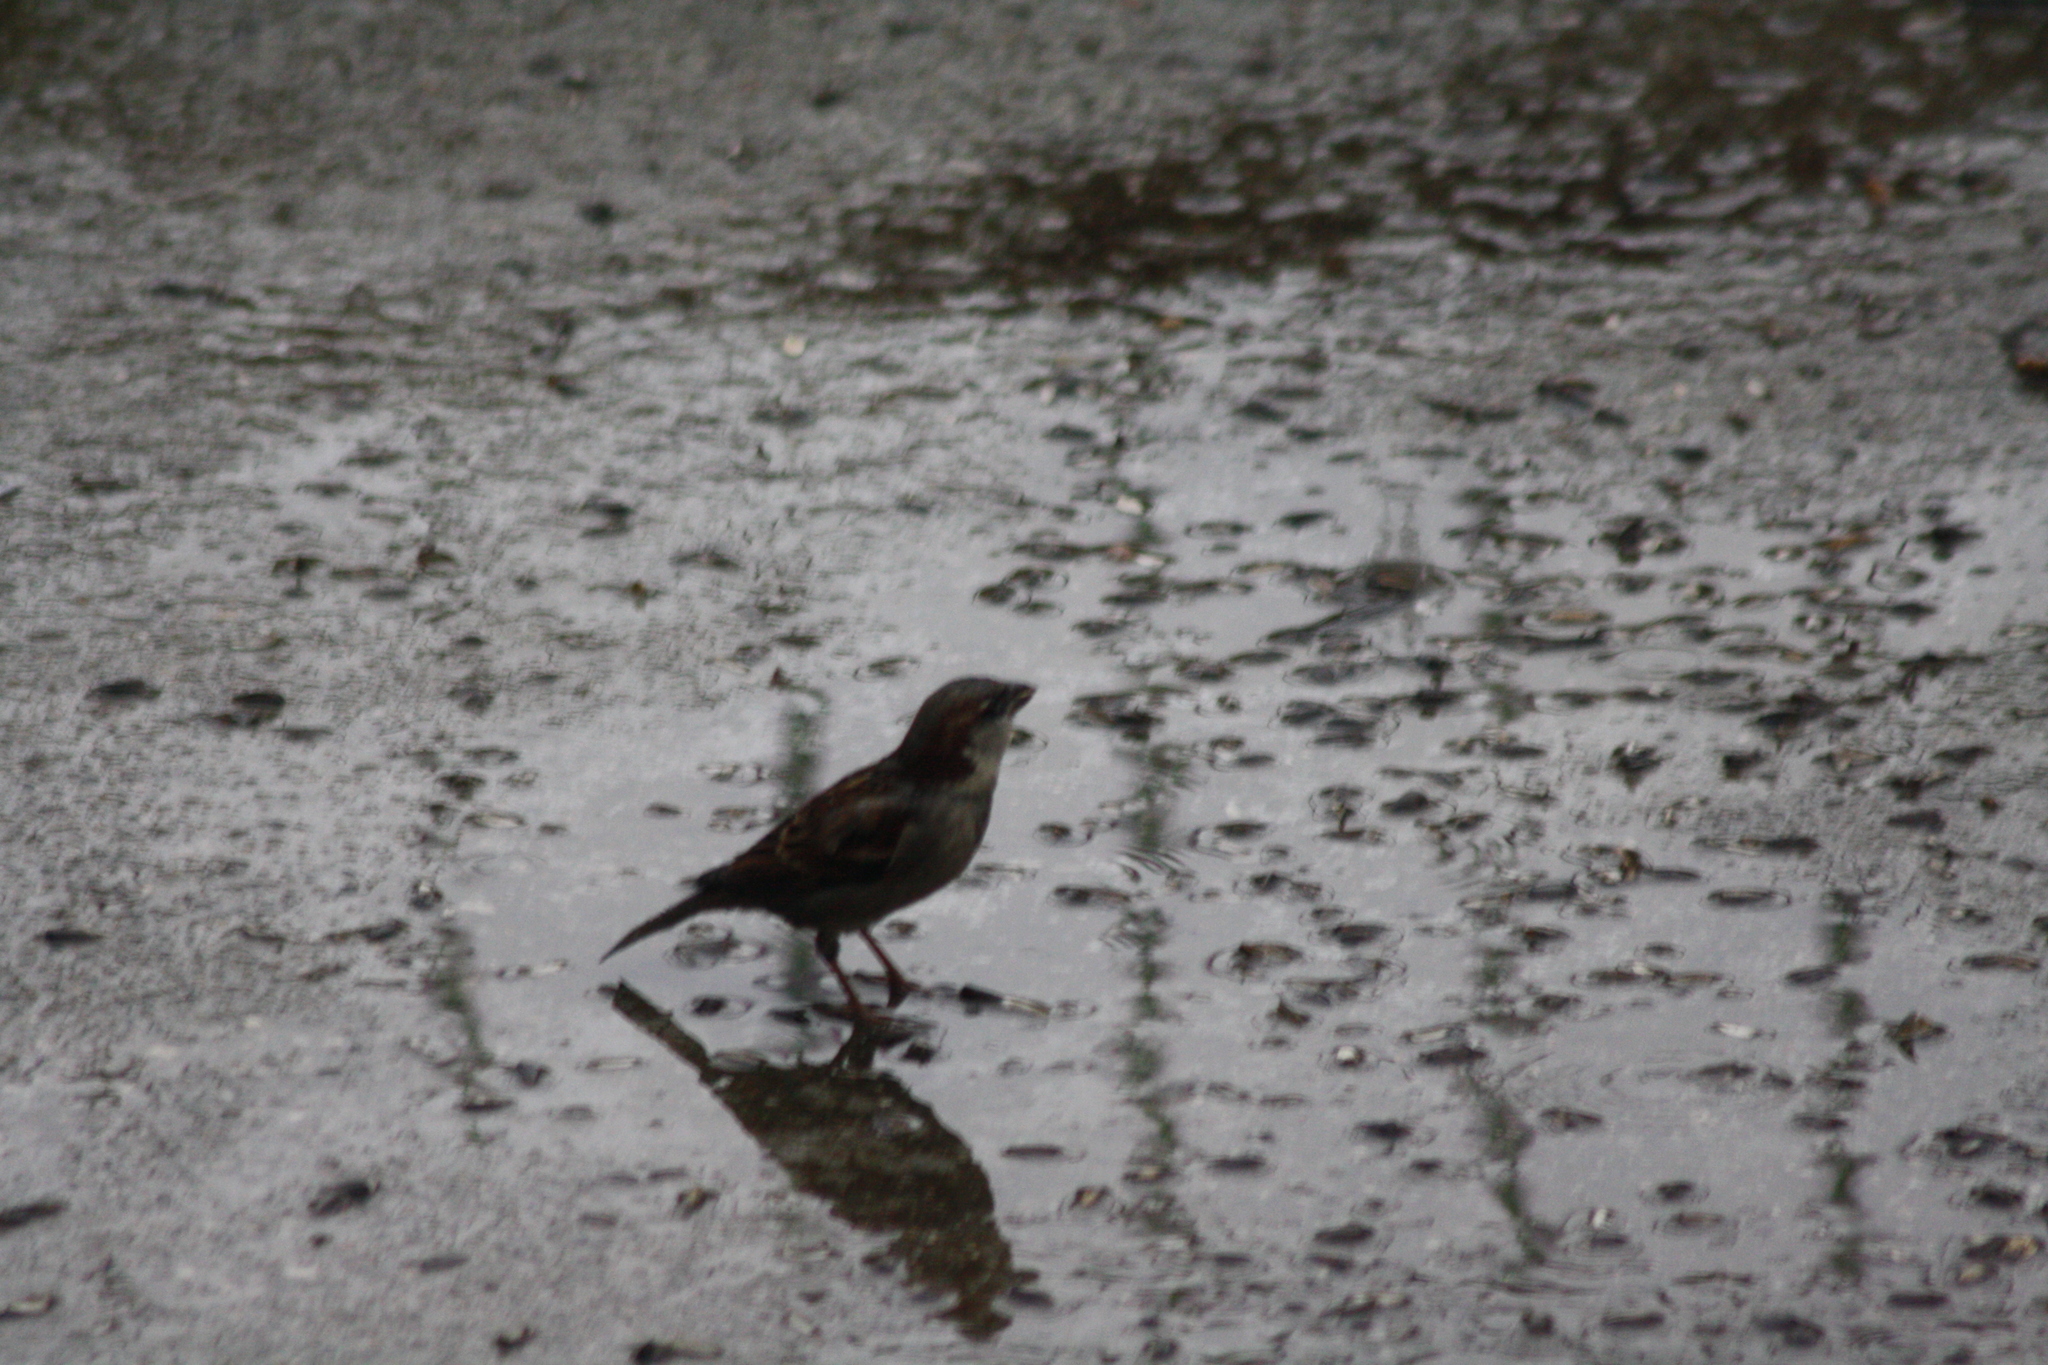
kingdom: Animalia
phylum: Chordata
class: Aves
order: Passeriformes
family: Passeridae
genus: Passer
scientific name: Passer domesticus
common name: House sparrow
